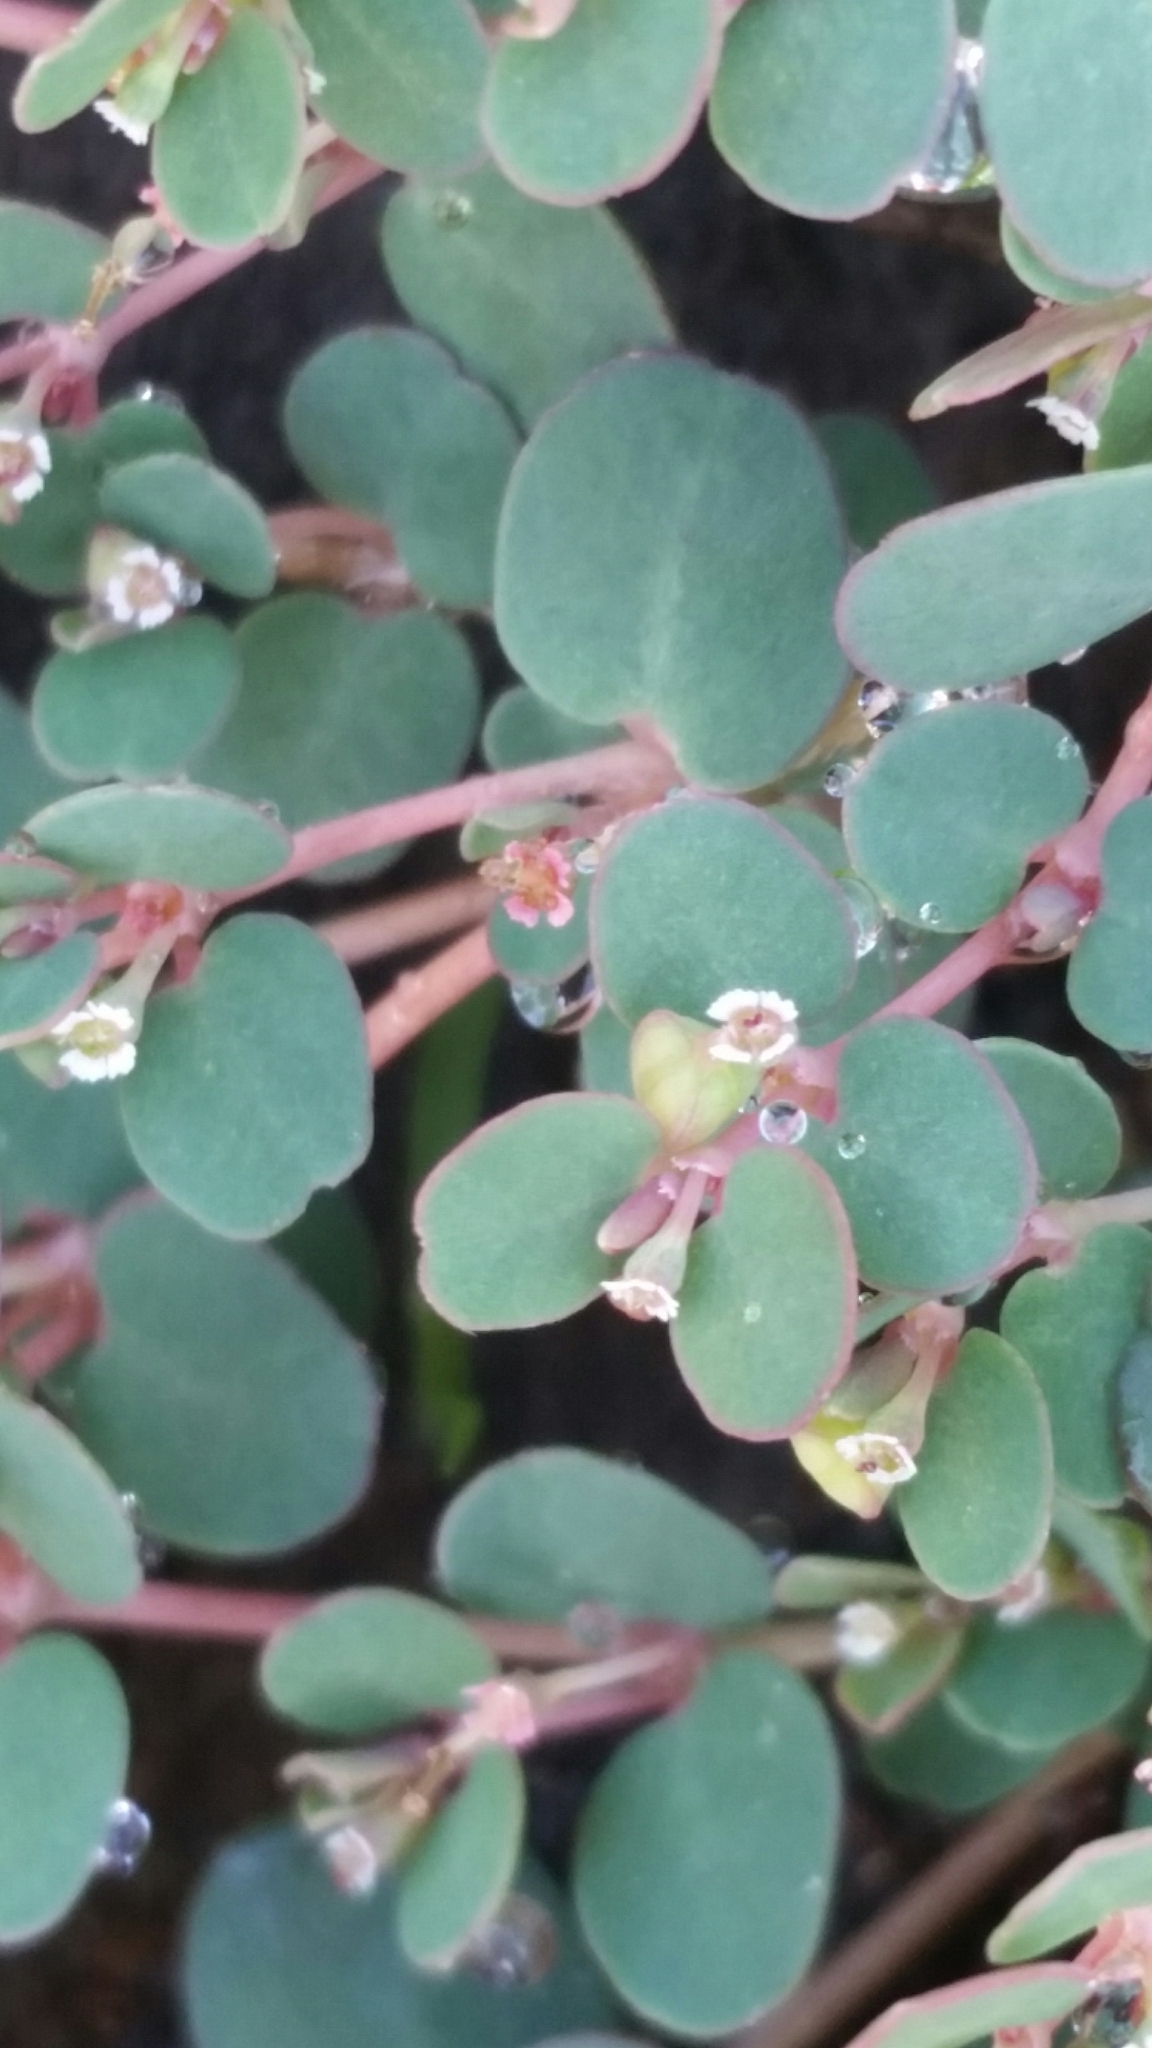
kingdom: Plantae
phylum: Tracheophyta
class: Magnoliopsida
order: Malpighiales
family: Euphorbiaceae
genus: Euphorbia
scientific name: Euphorbia glyptosperma
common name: Corrugate-seeded spurge
